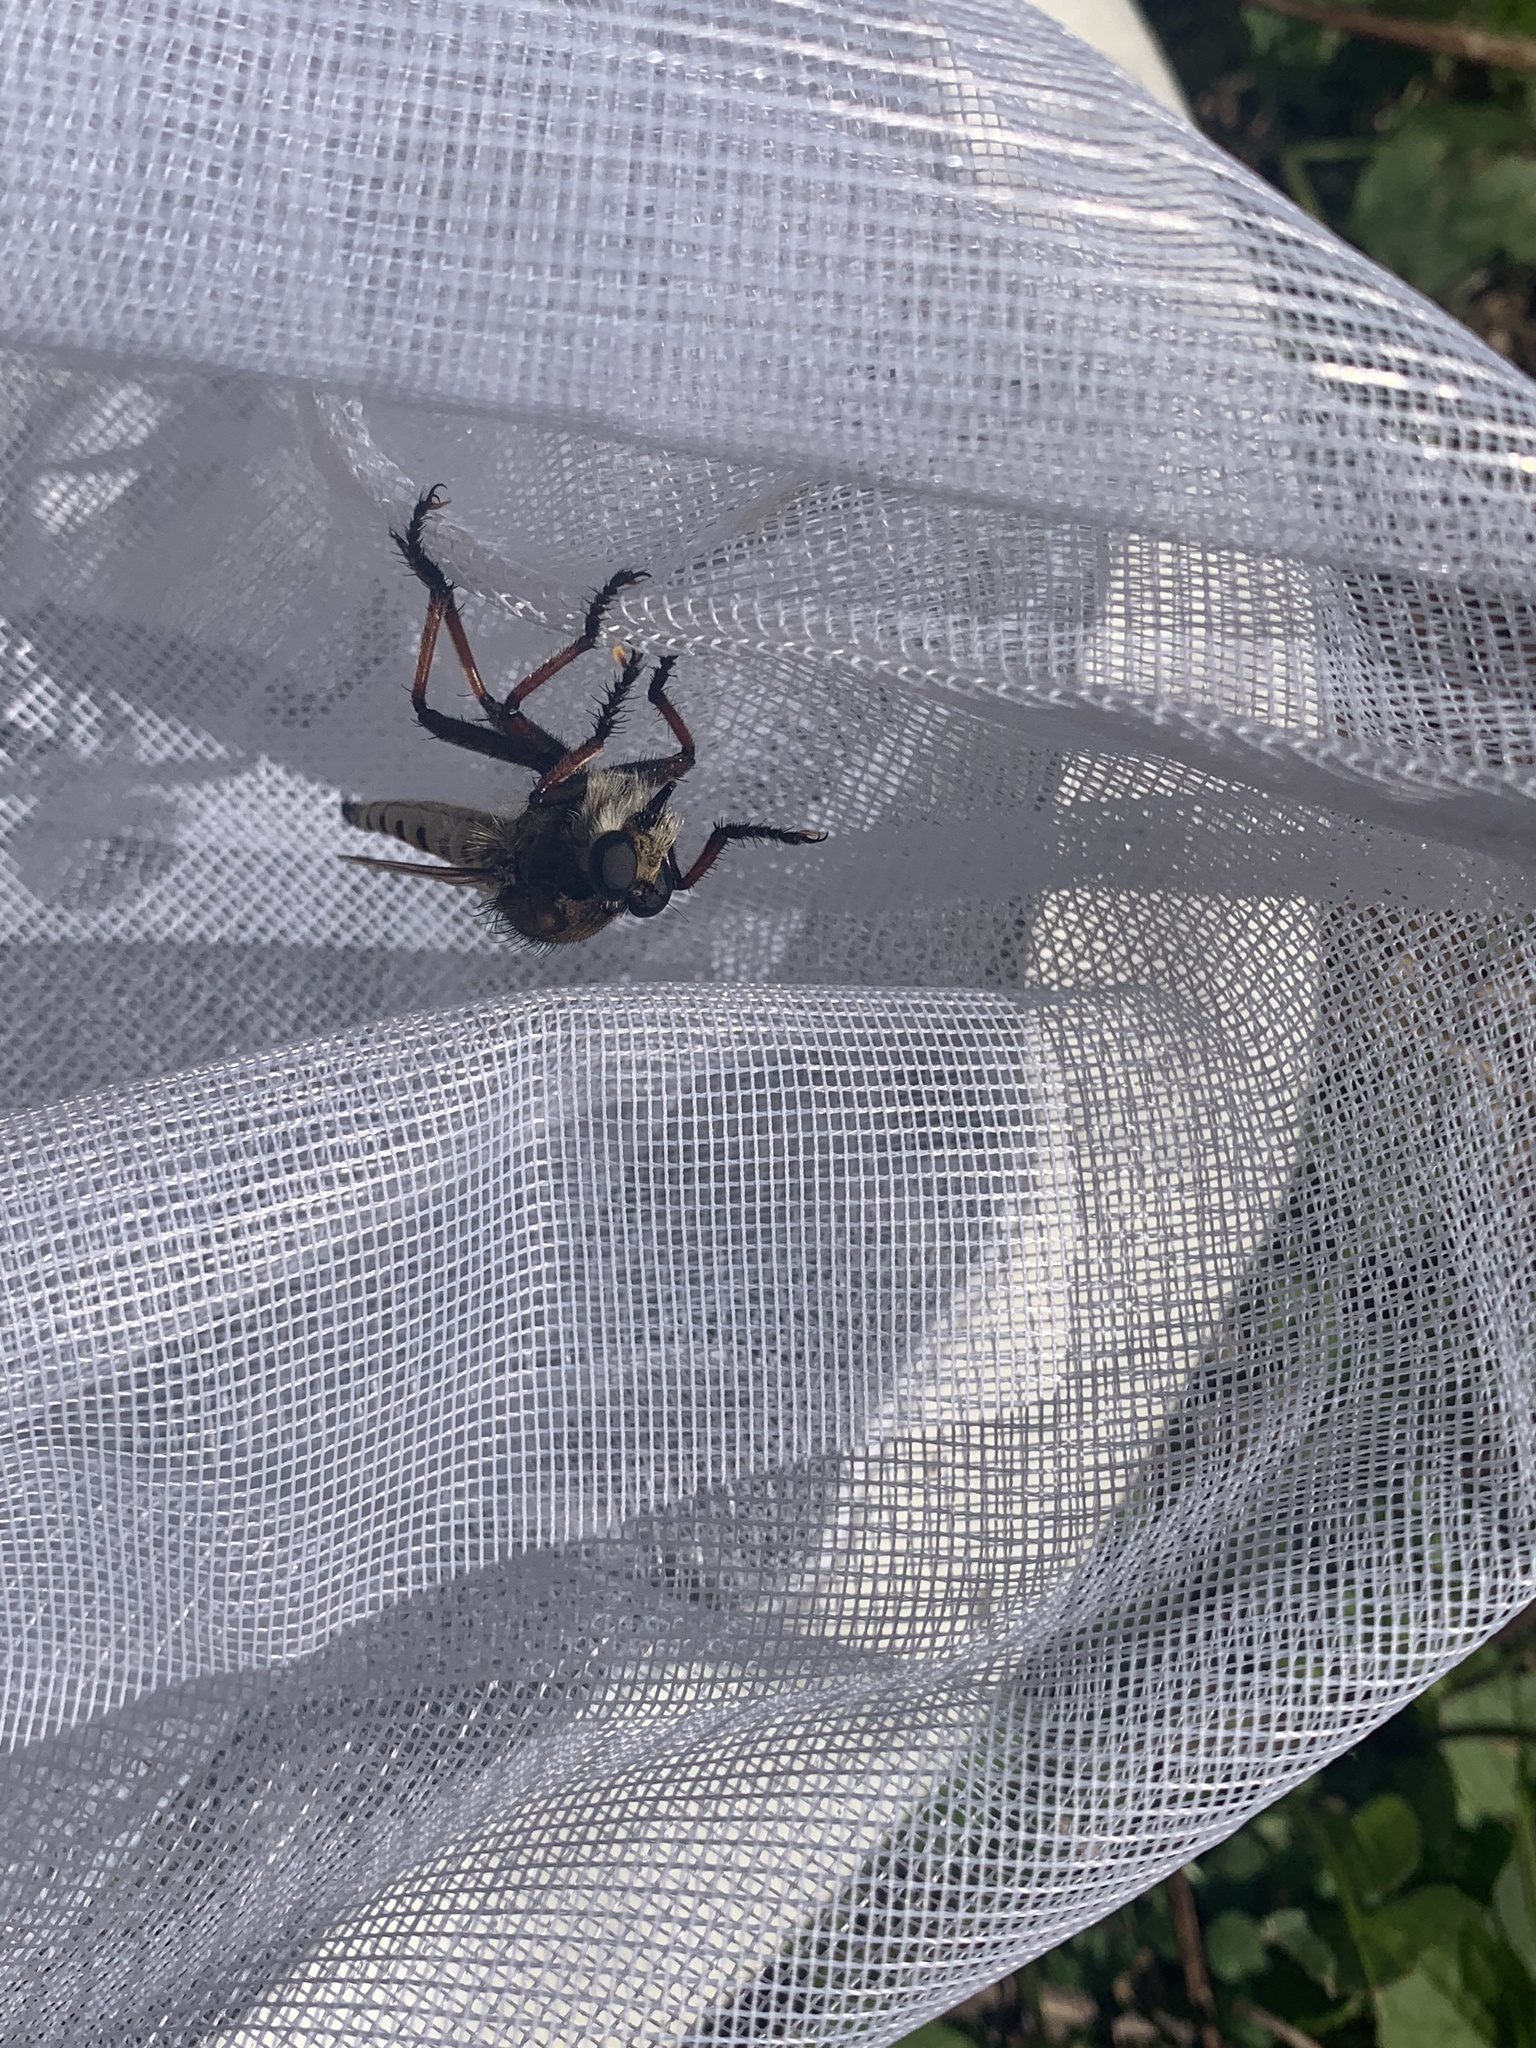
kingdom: Animalia
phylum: Arthropoda
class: Insecta
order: Diptera
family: Asilidae
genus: Promachus
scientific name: Promachus hinei
